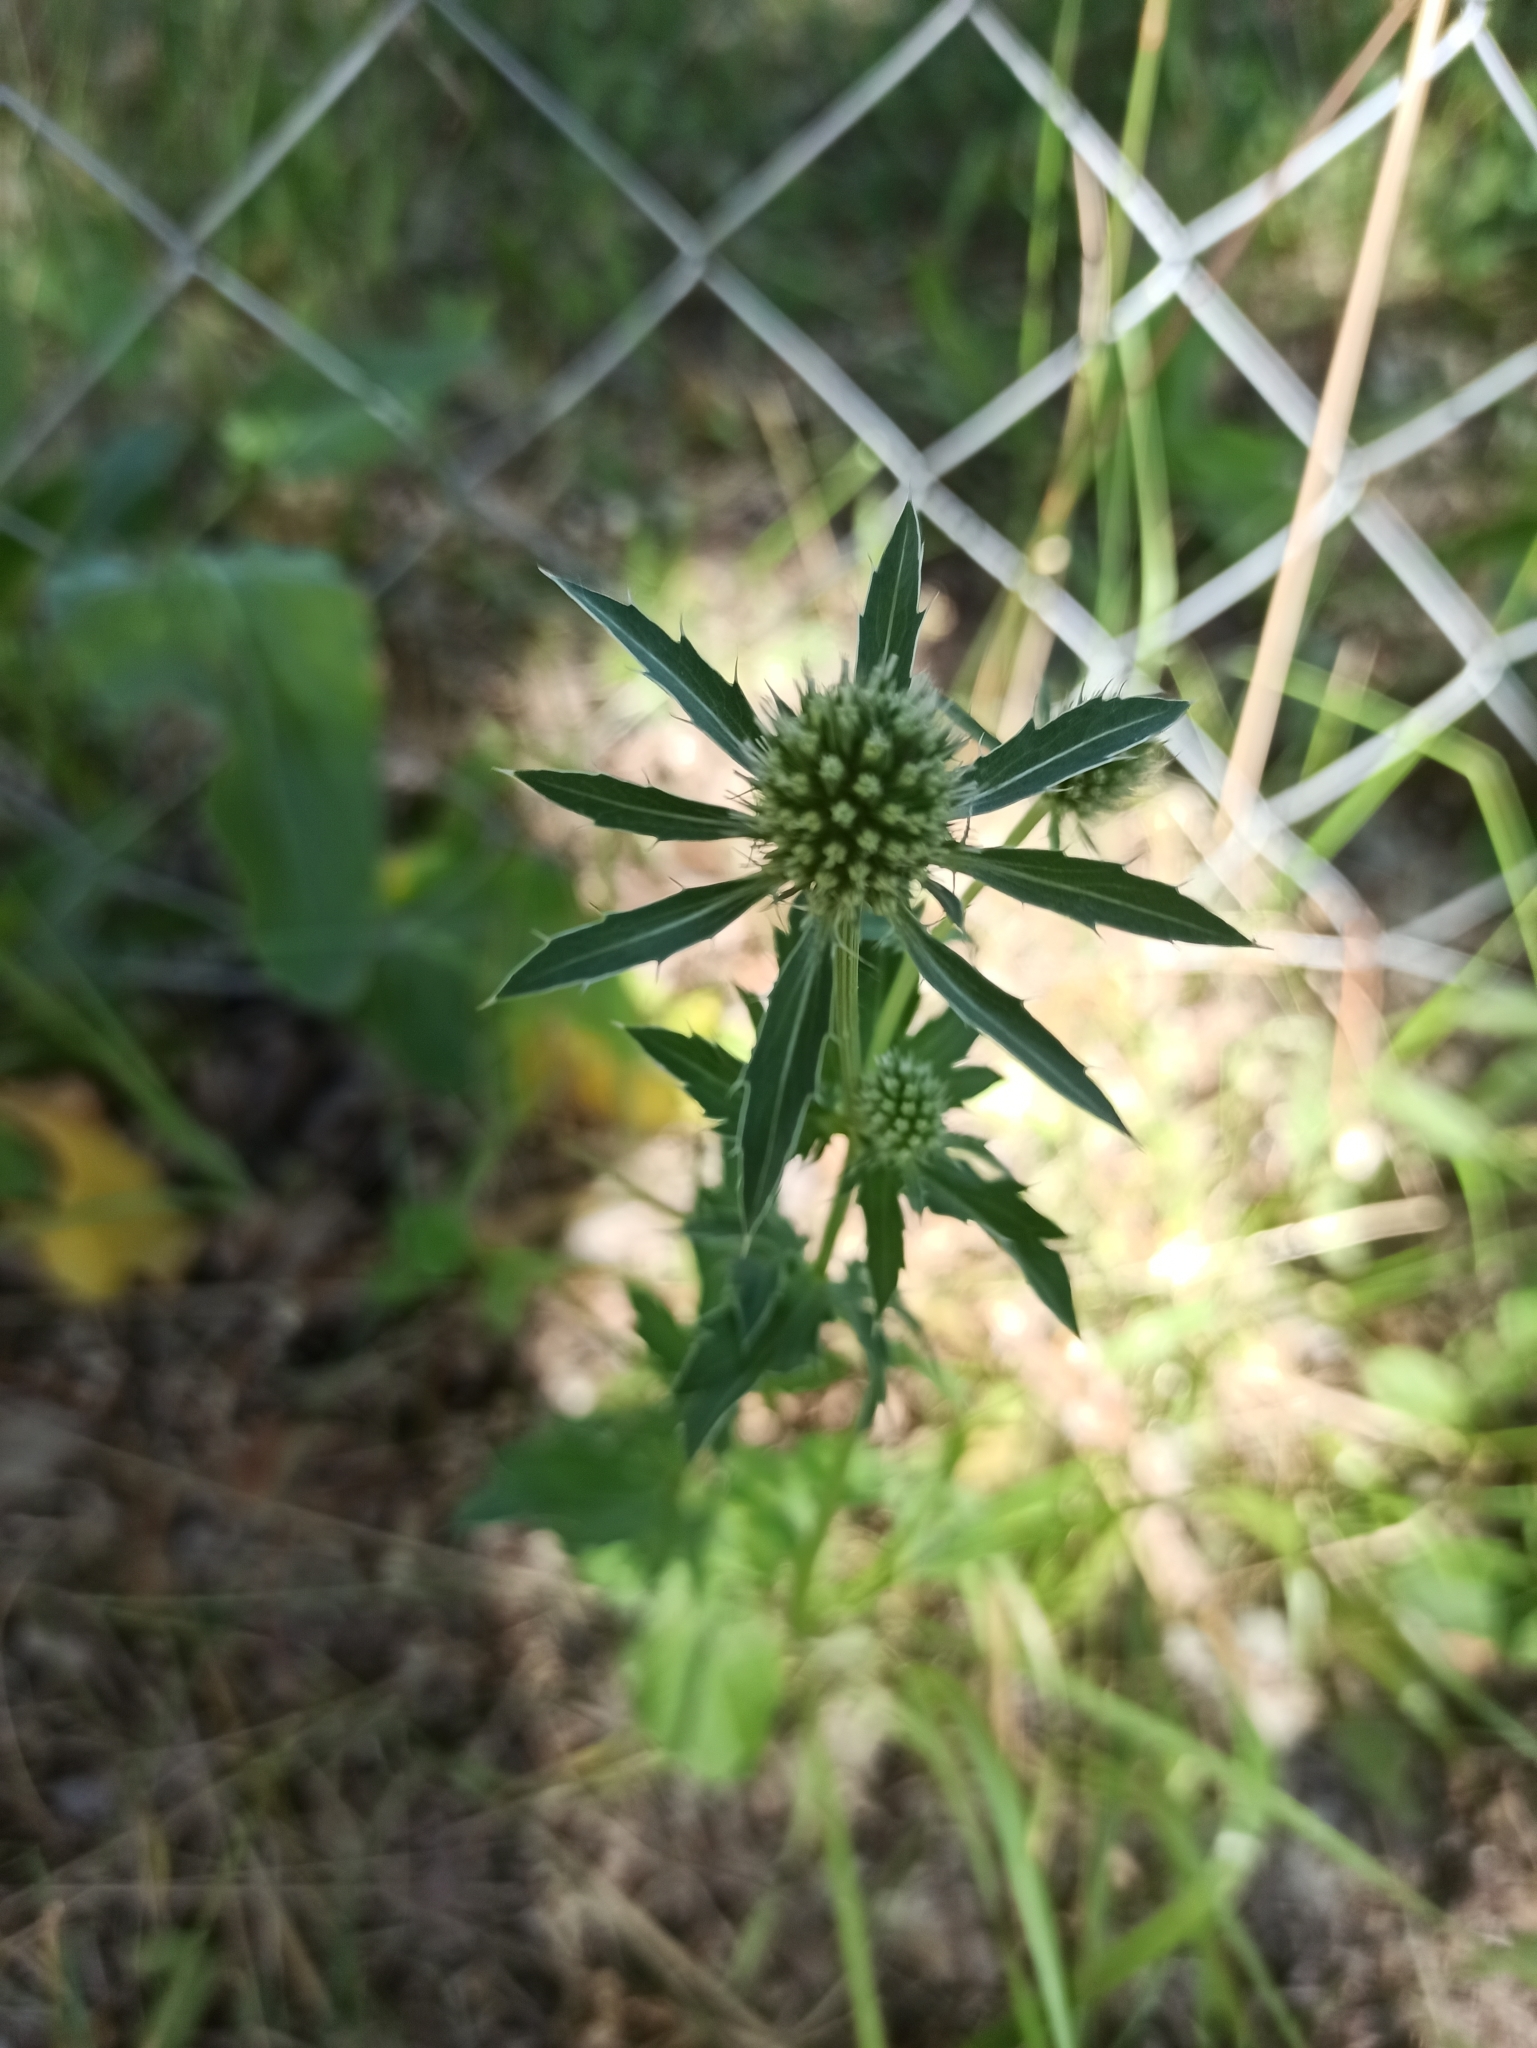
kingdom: Plantae
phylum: Tracheophyta
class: Magnoliopsida
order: Apiales
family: Apiaceae
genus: Eryngium
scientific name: Eryngium planum
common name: Blue eryngo
